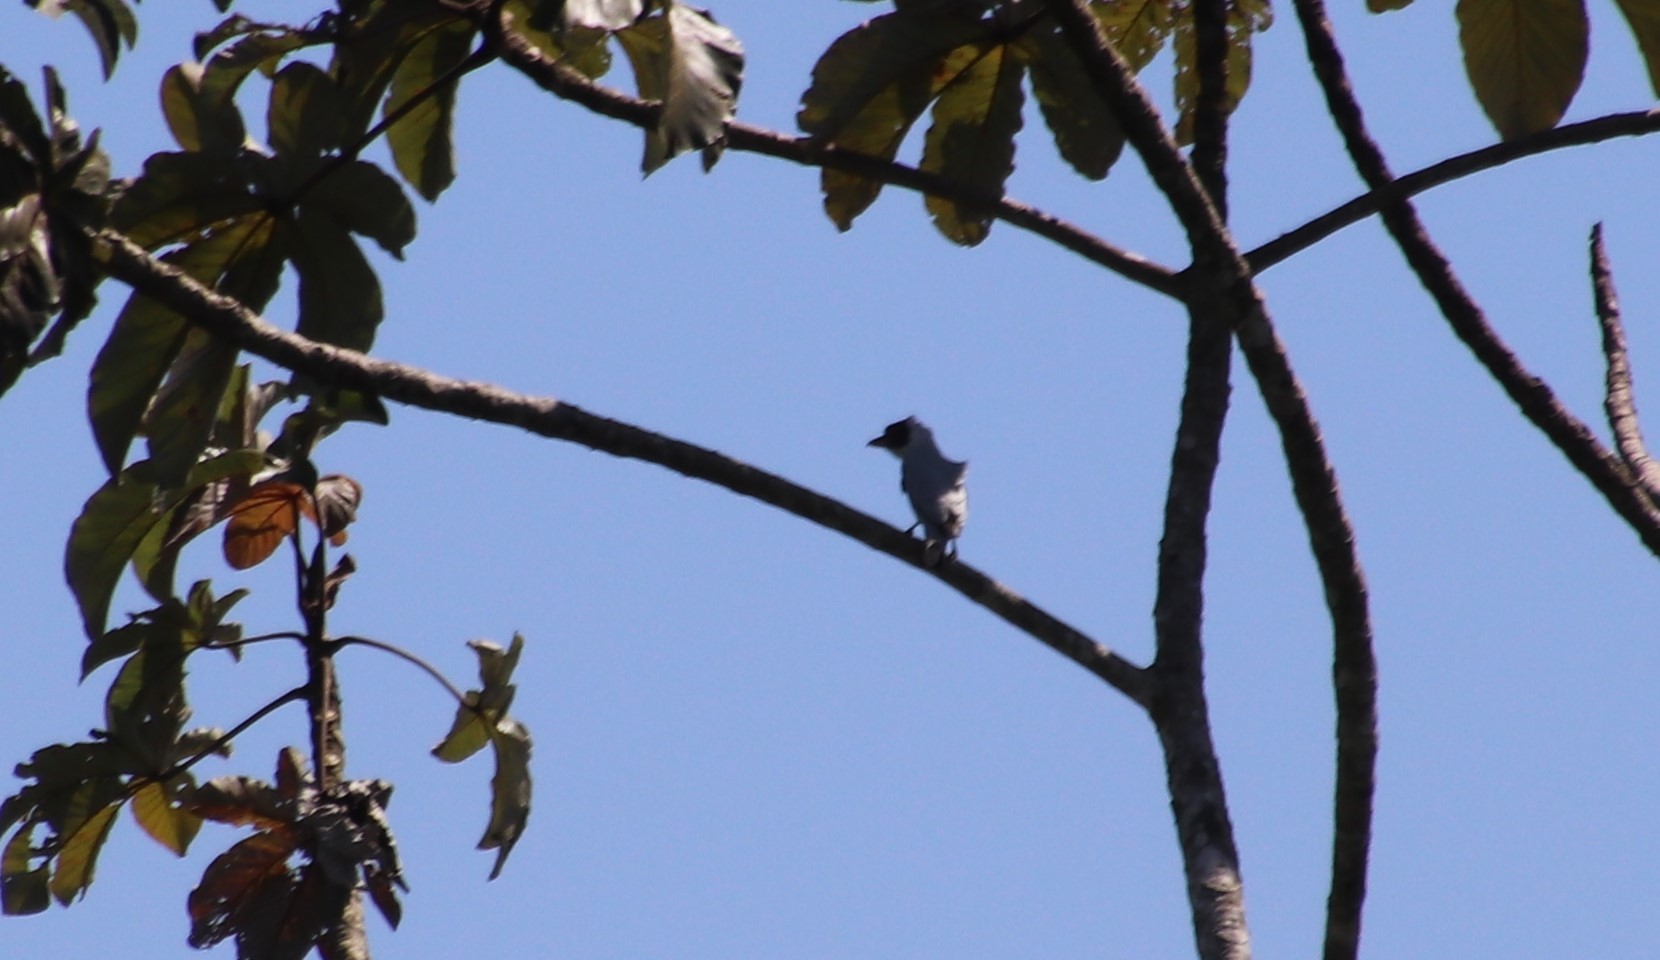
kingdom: Animalia
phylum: Chordata
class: Aves
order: Passeriformes
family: Cotingidae
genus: Tityra
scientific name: Tityra semifasciata
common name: Masked tityra
